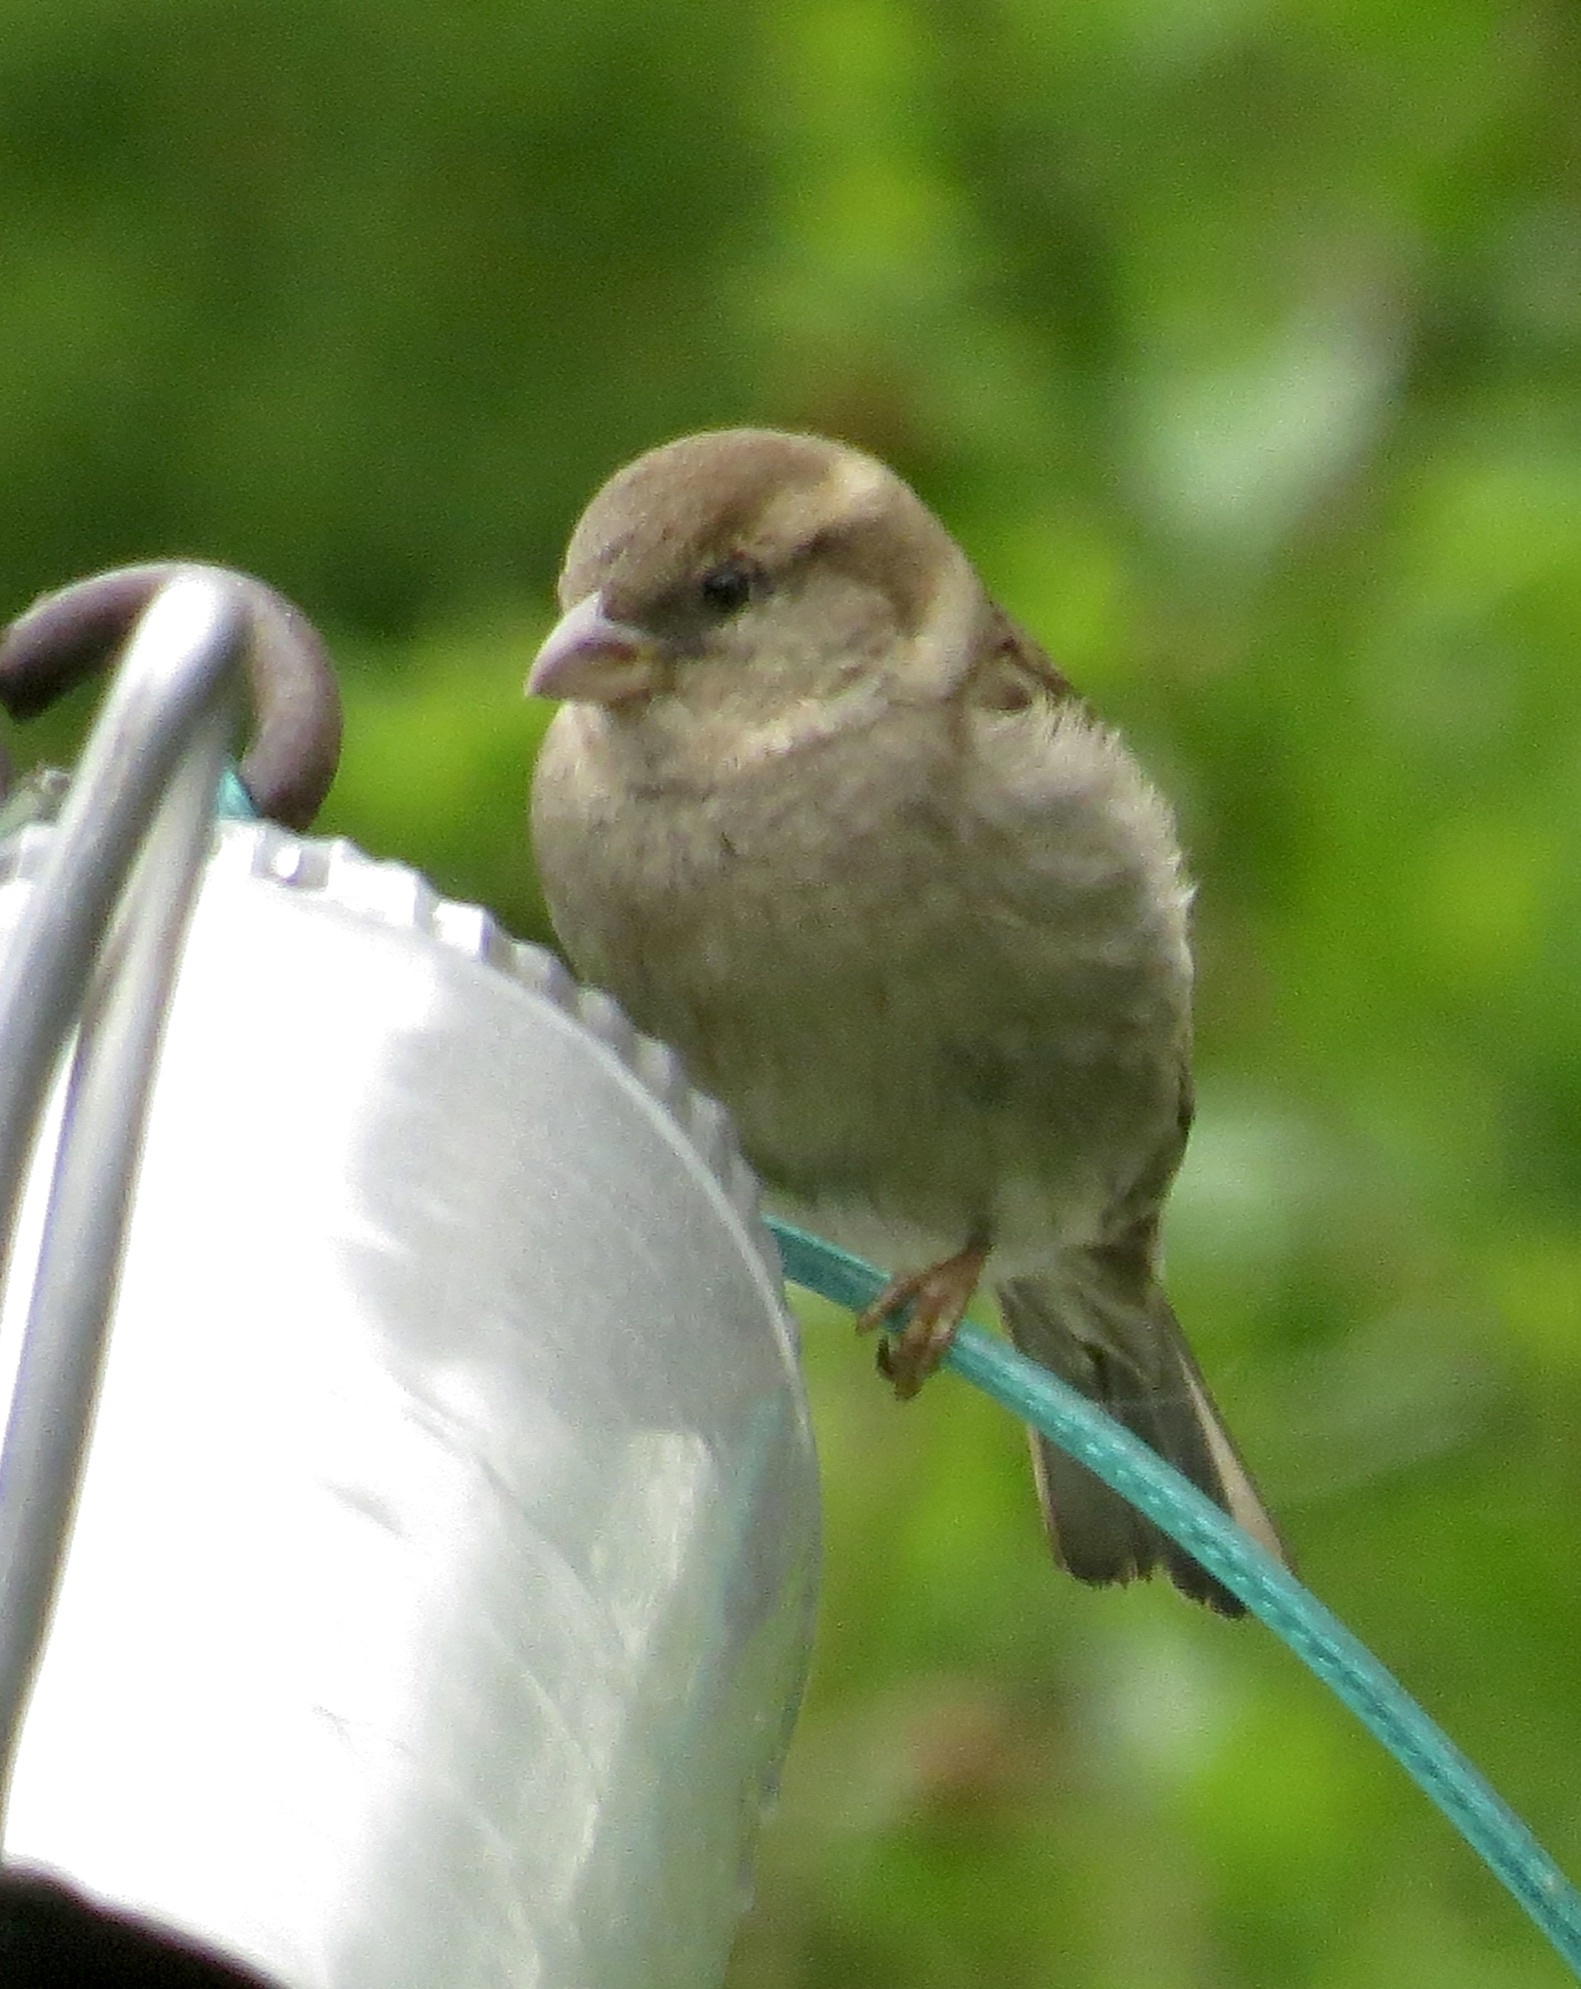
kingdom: Animalia
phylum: Chordata
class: Aves
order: Passeriformes
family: Passeridae
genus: Passer
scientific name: Passer domesticus
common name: House sparrow
